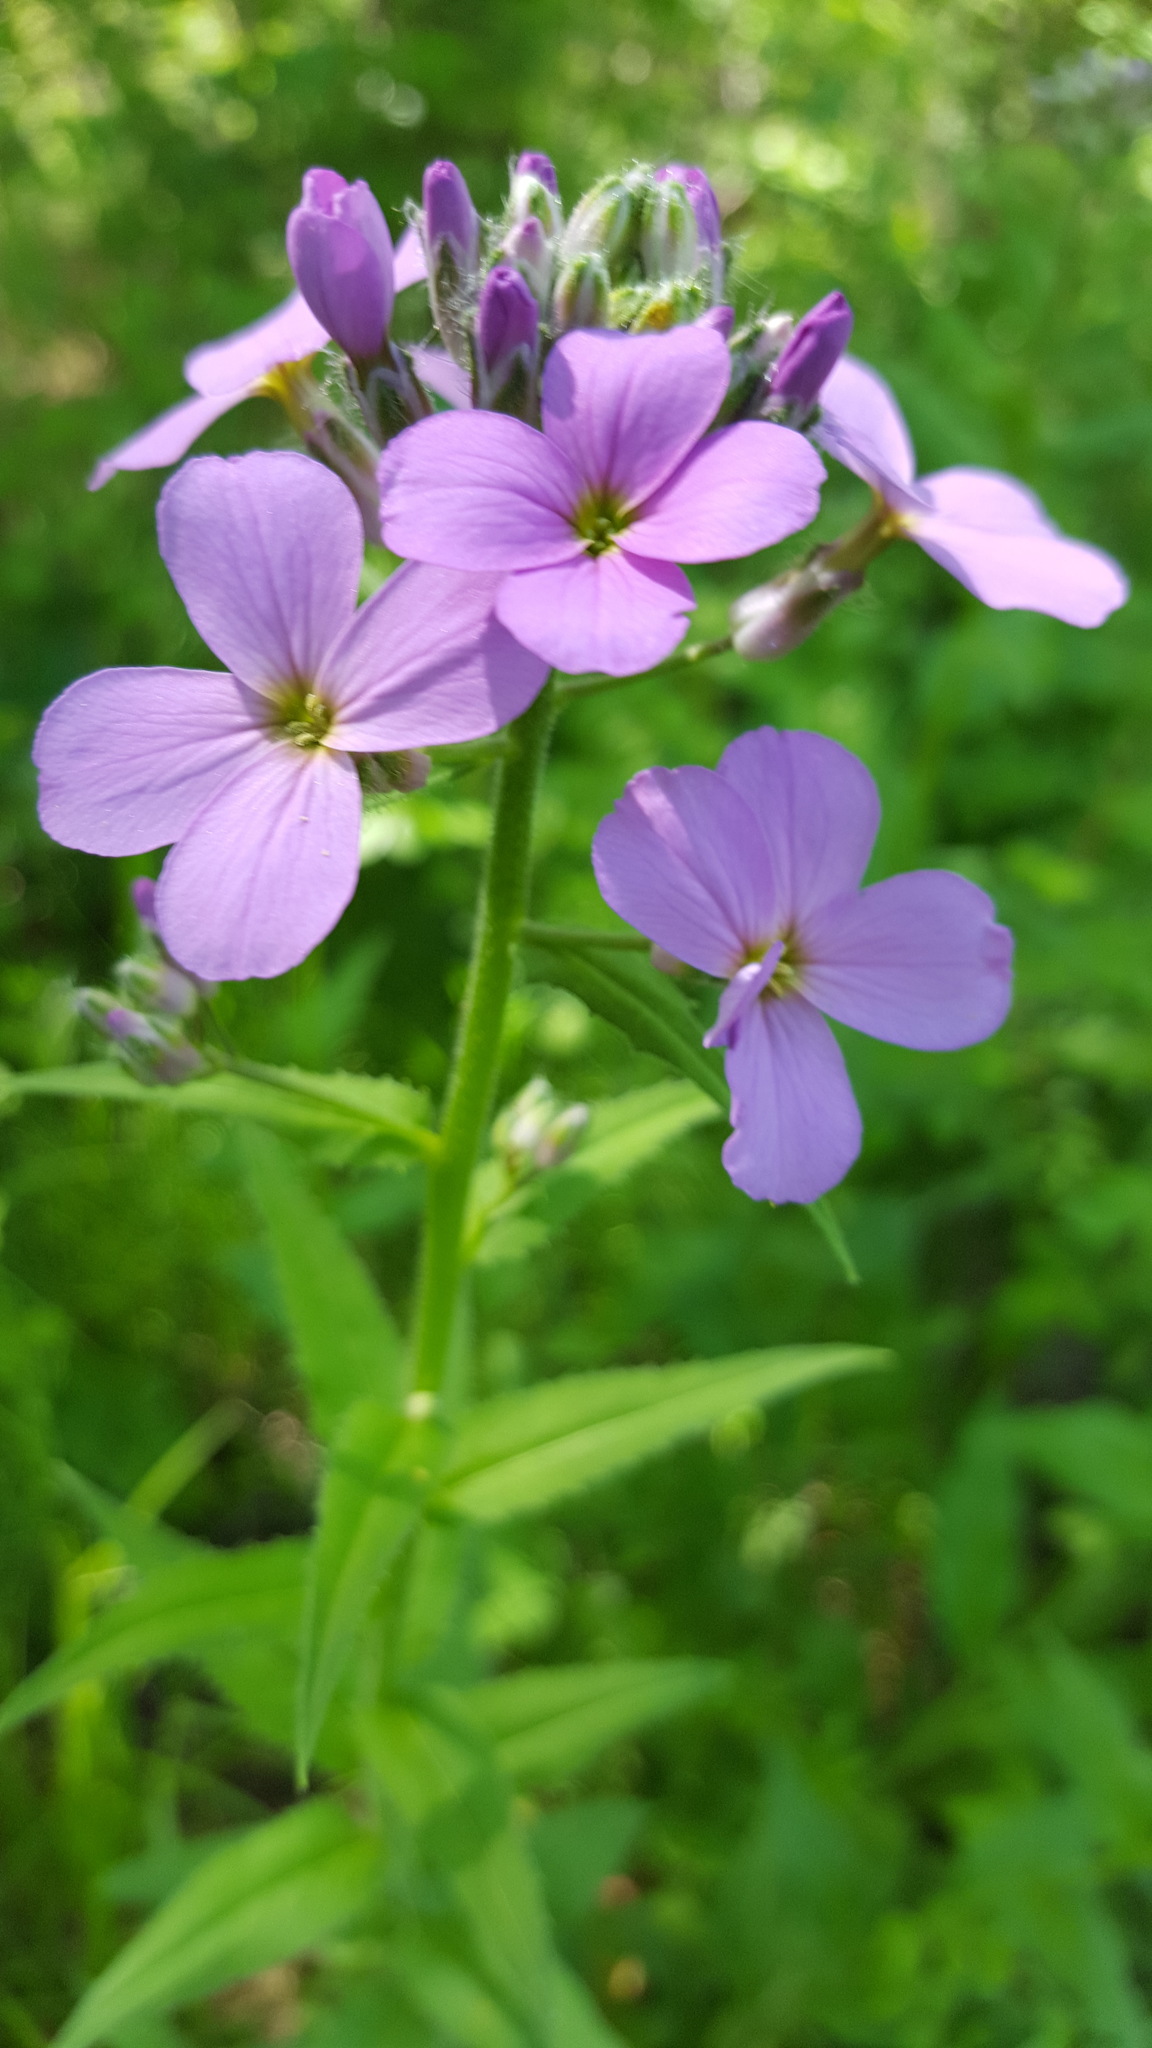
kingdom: Plantae
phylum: Tracheophyta
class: Magnoliopsida
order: Brassicales
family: Brassicaceae
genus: Hesperis
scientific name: Hesperis matronalis
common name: Dame's-violet
